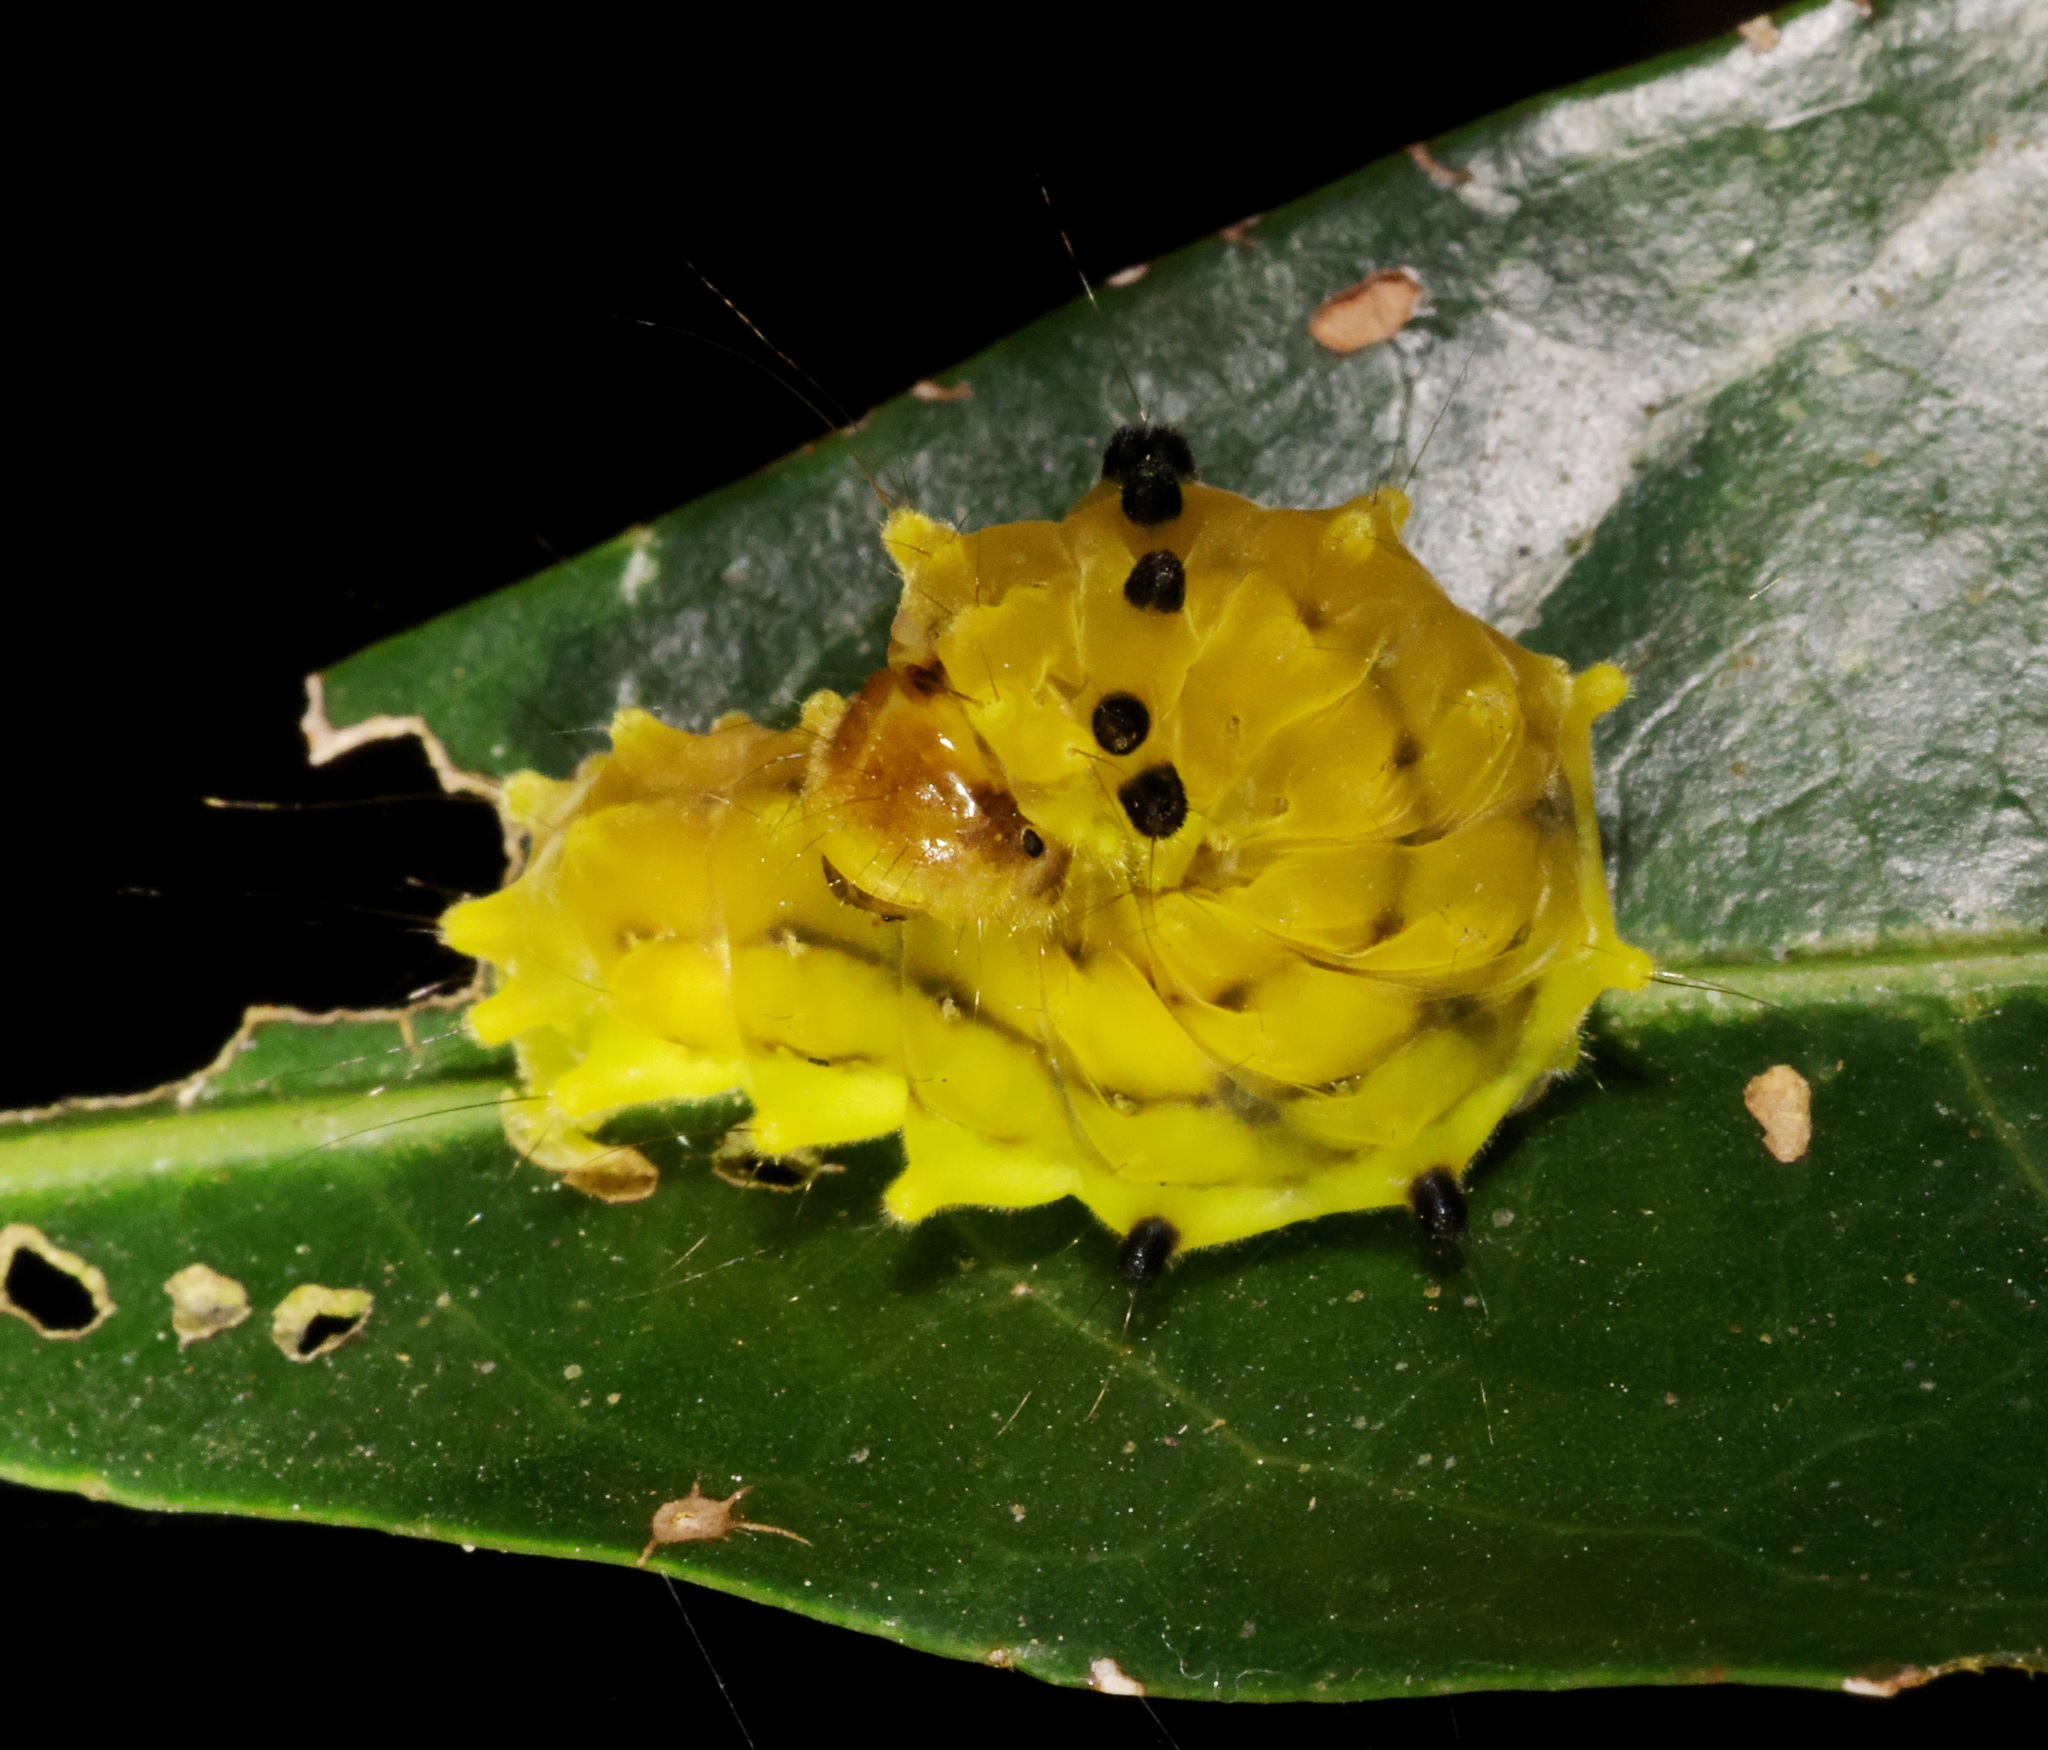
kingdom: Animalia
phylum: Arthropoda
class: Insecta
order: Lepidoptera
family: Zygaenidae
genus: Chalcosia
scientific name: Chalcosia suffusa
